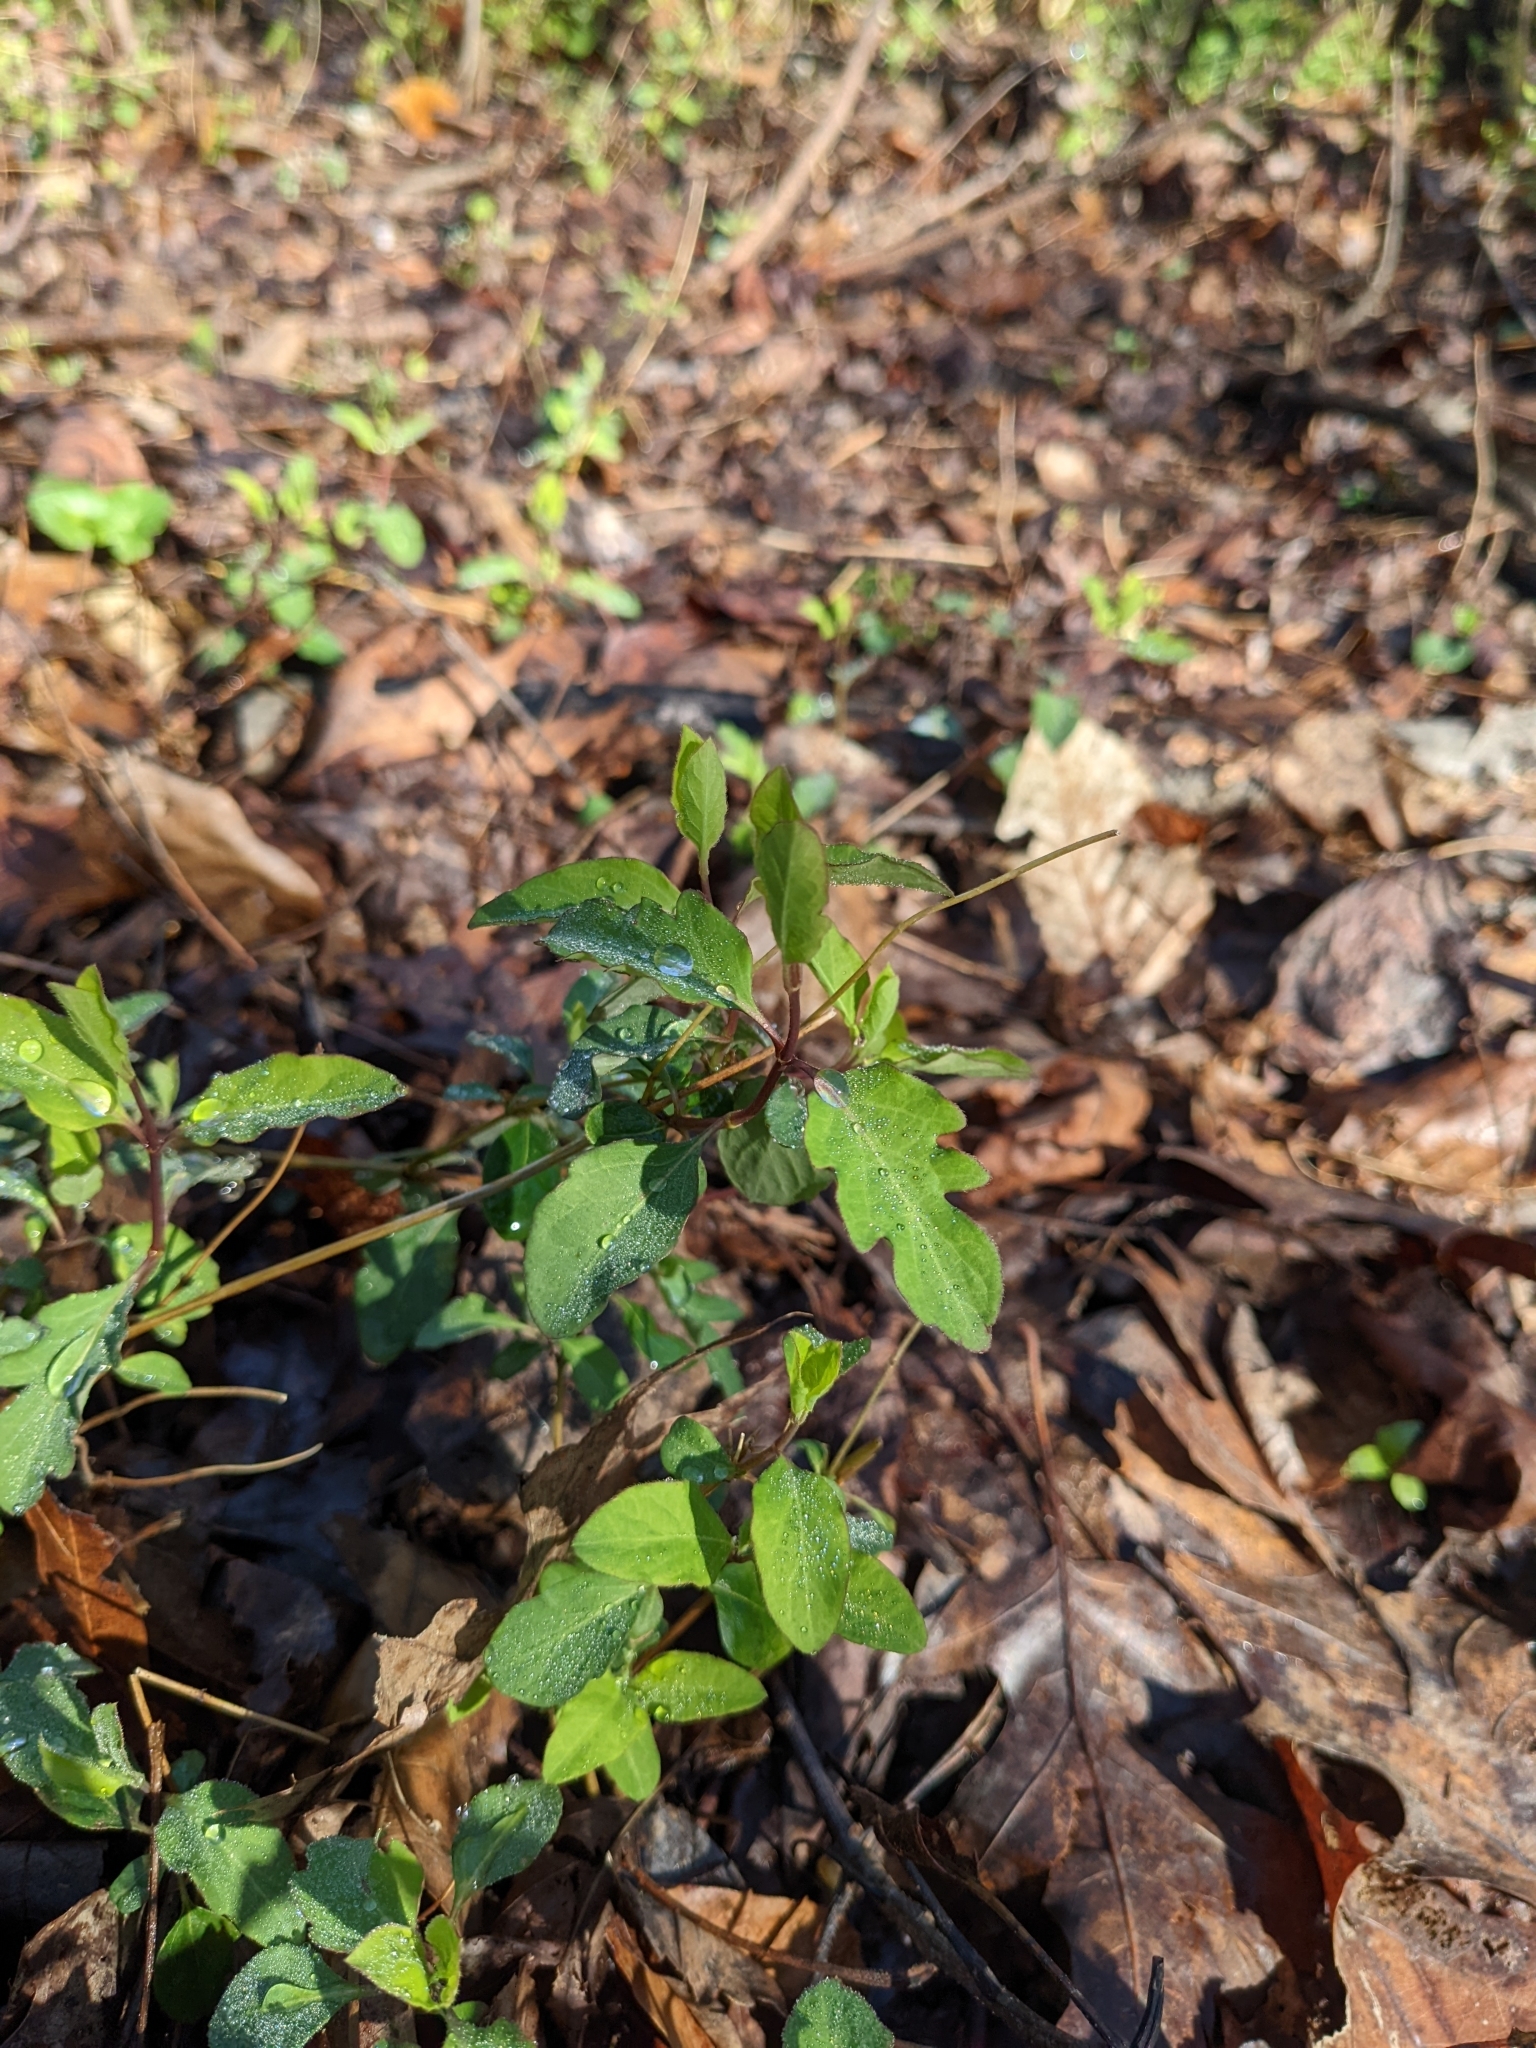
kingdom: Plantae
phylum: Tracheophyta
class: Magnoliopsida
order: Dipsacales
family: Caprifoliaceae
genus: Lonicera
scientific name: Lonicera japonica
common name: Japanese honeysuckle
